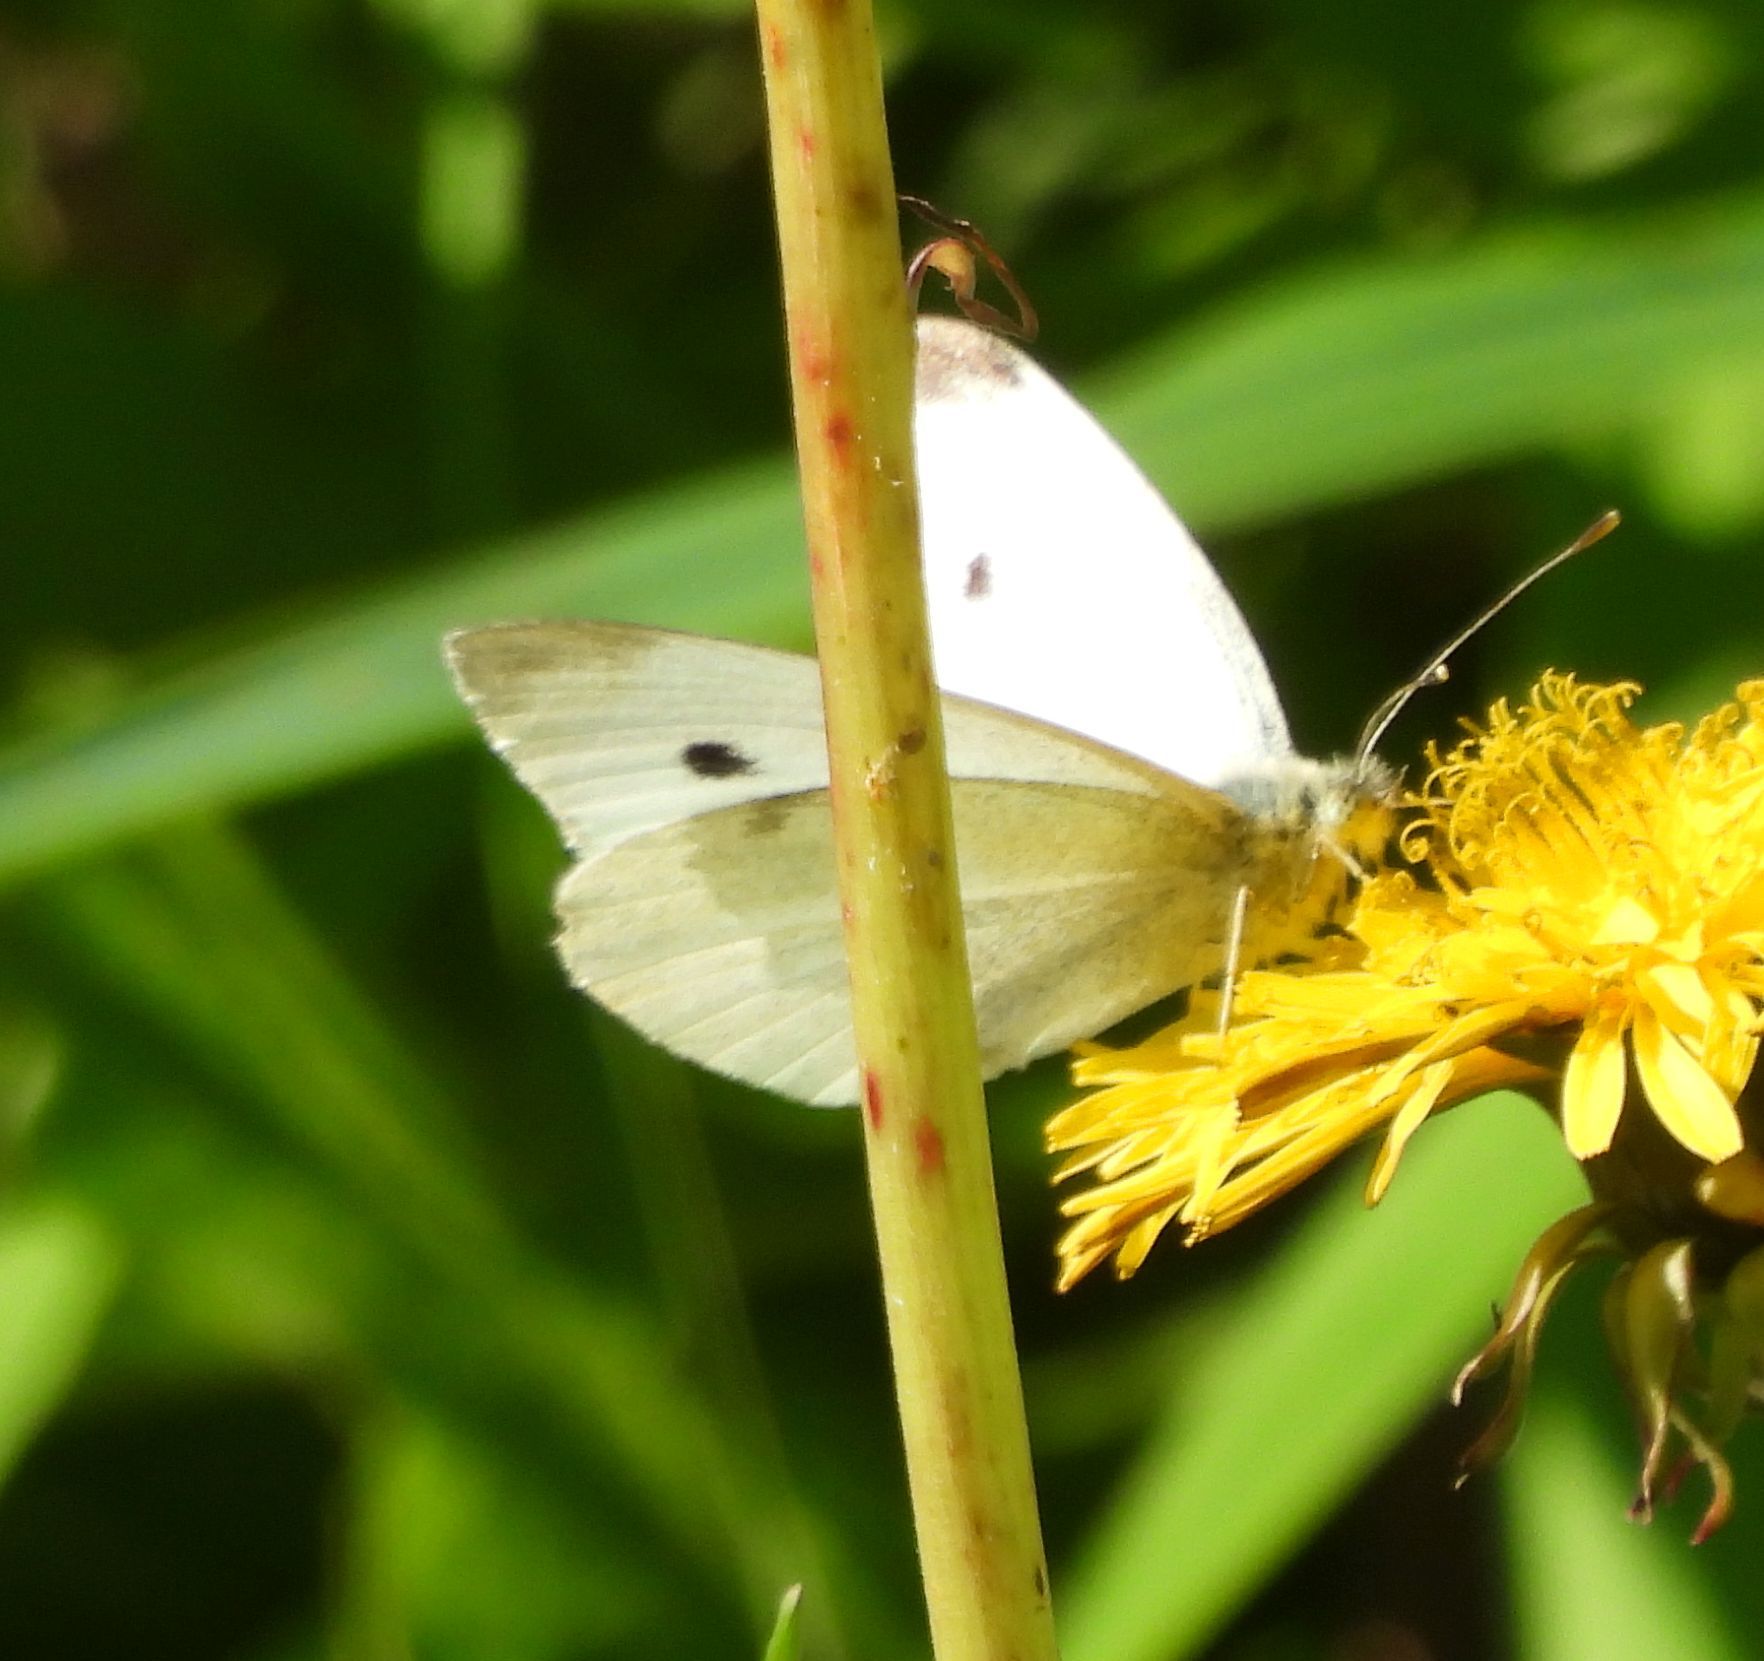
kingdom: Animalia
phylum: Arthropoda
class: Insecta
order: Lepidoptera
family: Pieridae
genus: Pieris
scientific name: Pieris rapae
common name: Small white
